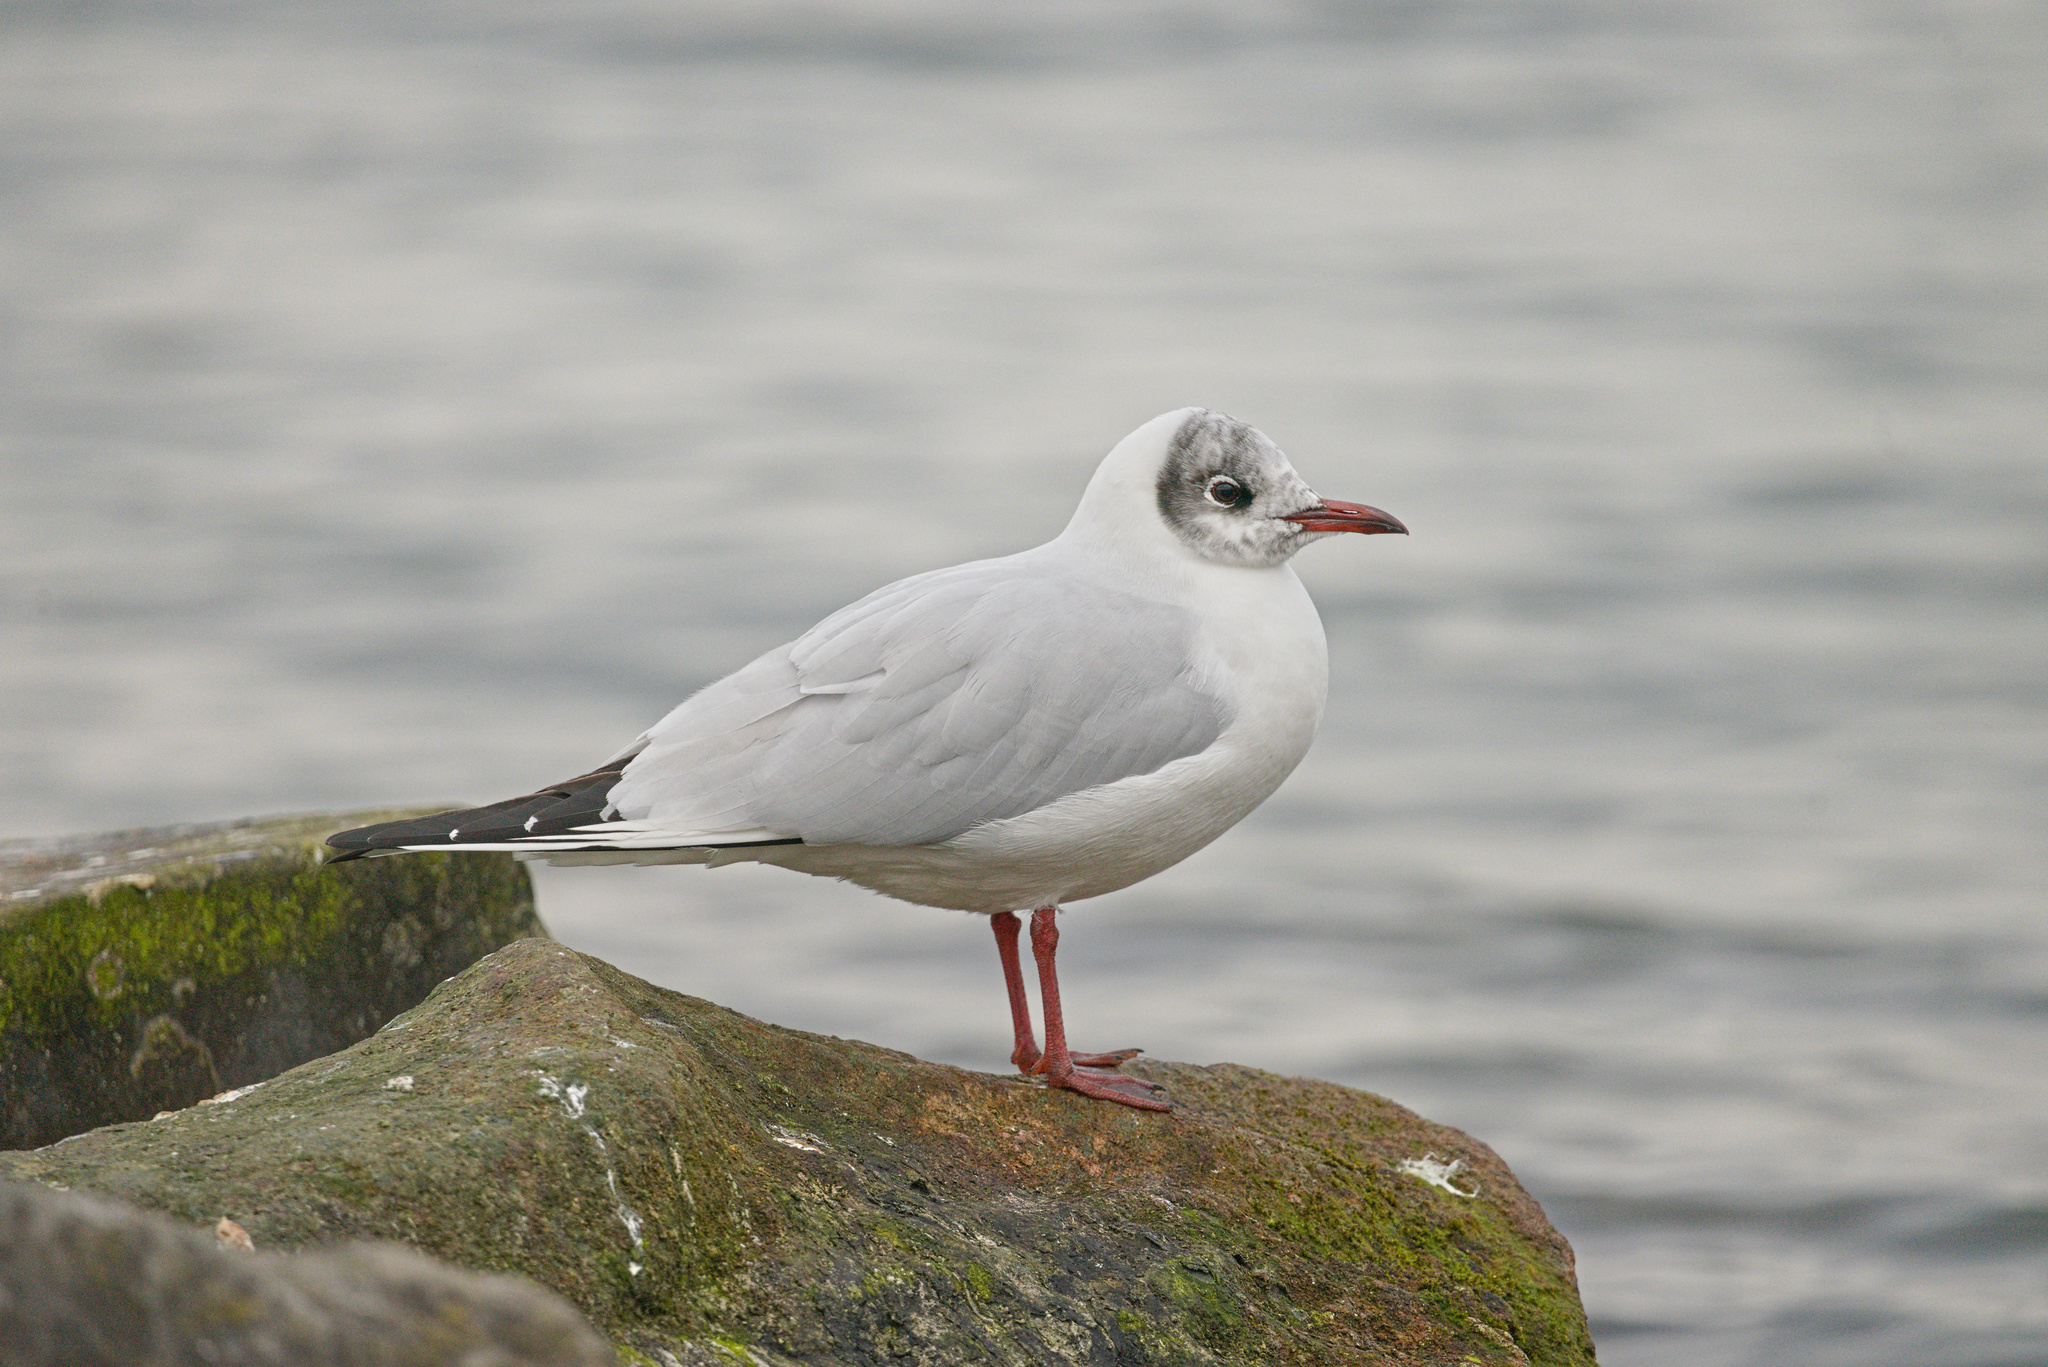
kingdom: Animalia
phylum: Chordata
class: Aves
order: Charadriiformes
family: Laridae
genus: Chroicocephalus
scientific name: Chroicocephalus ridibundus
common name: Black-headed gull
